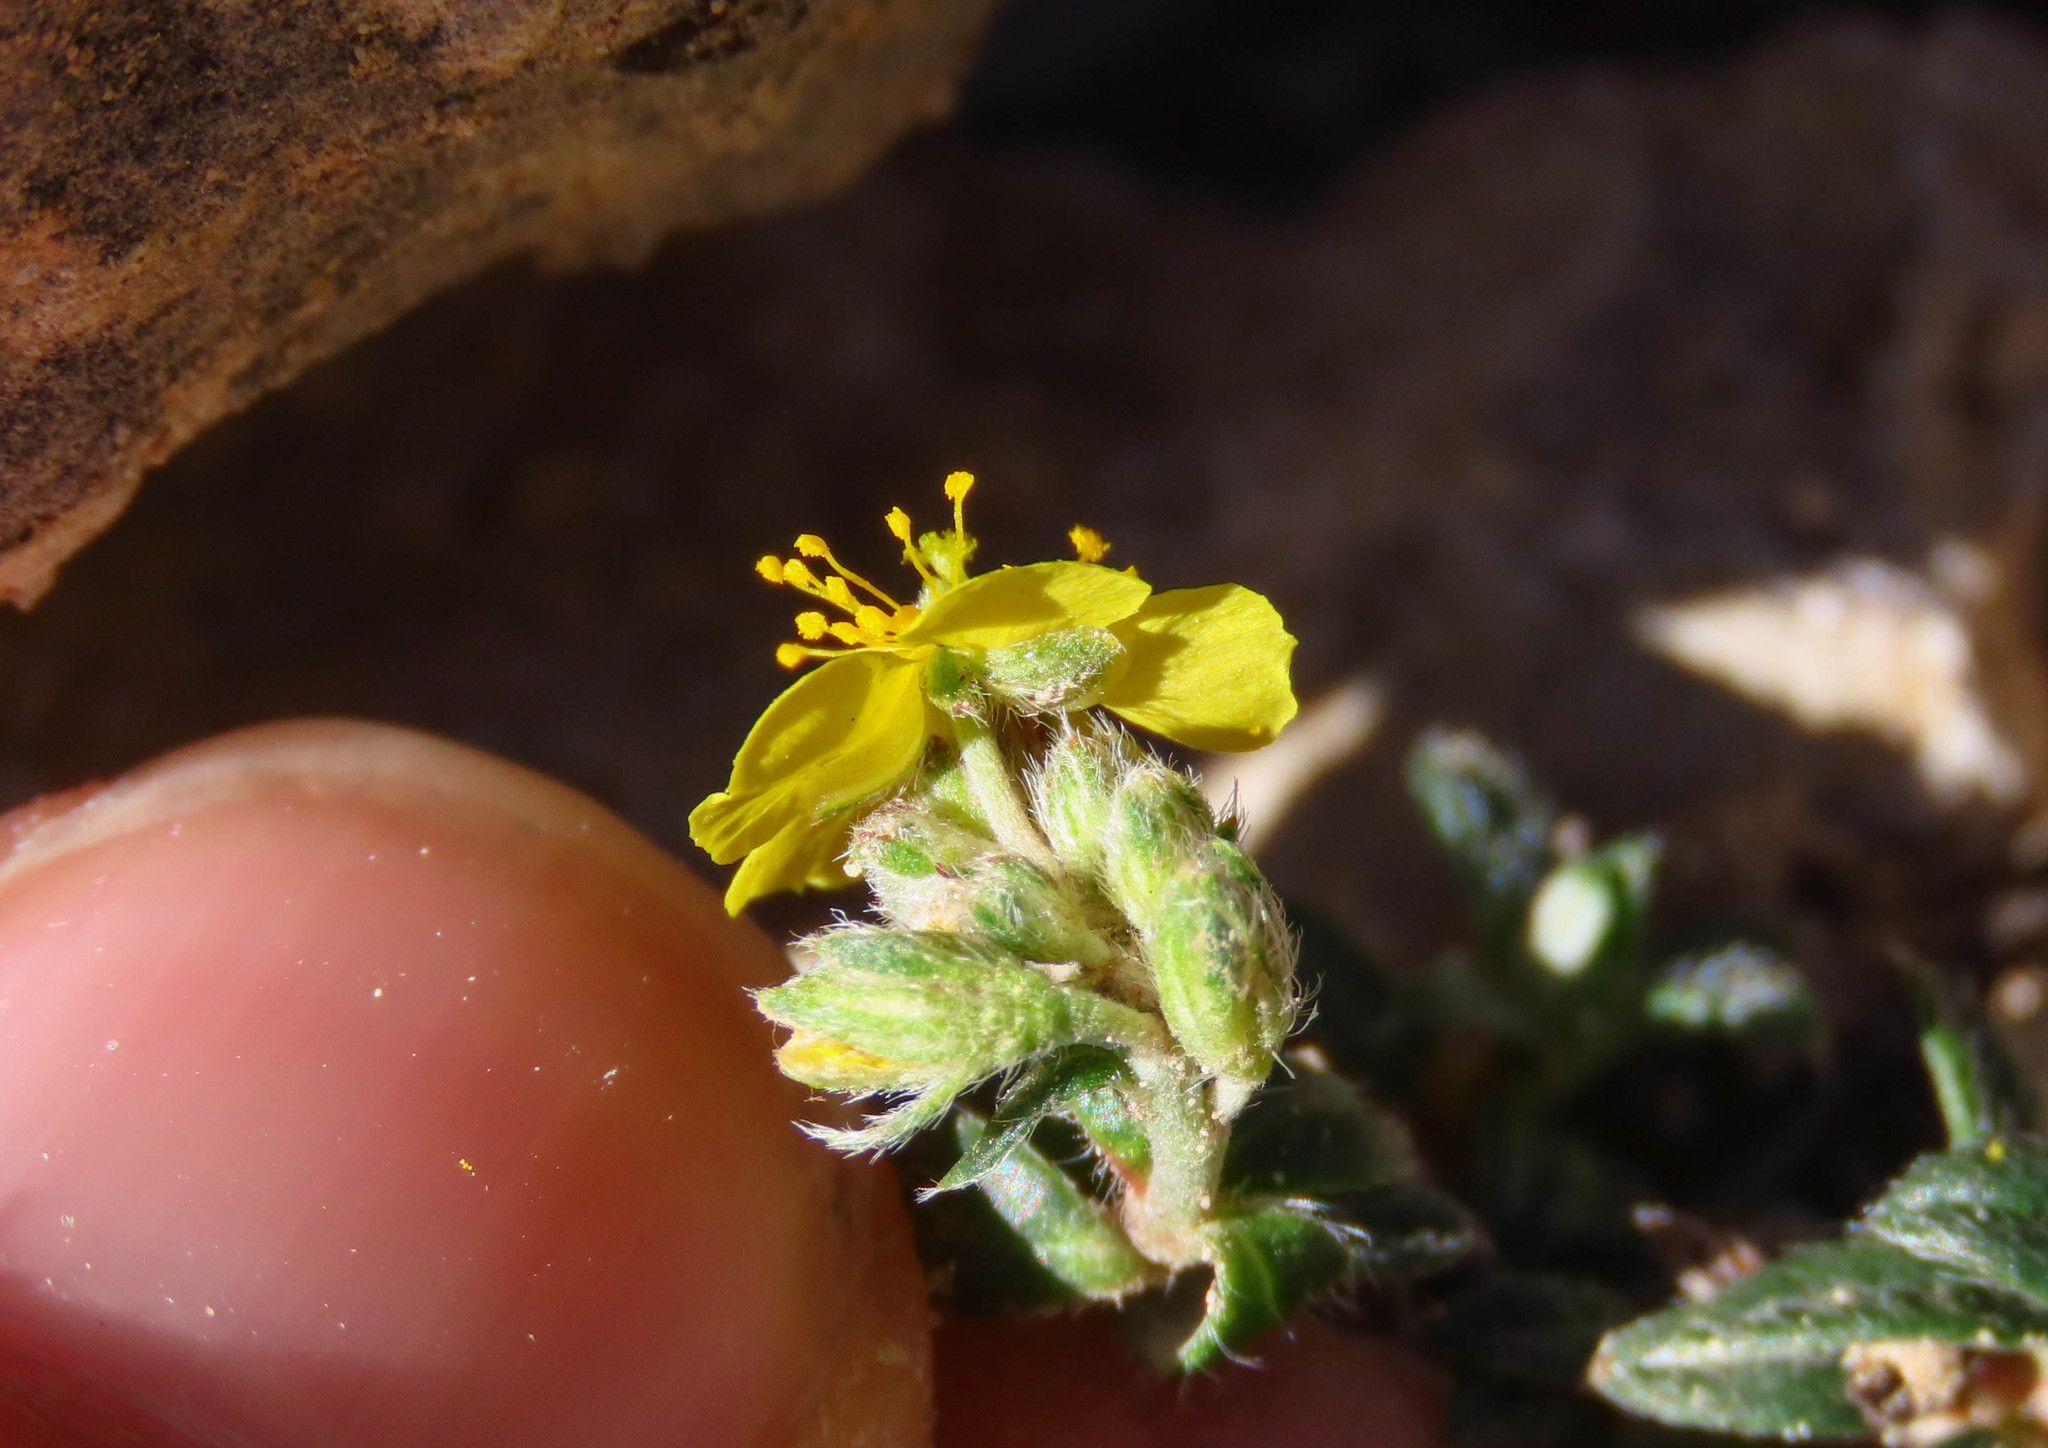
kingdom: Plantae
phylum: Tracheophyta
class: Magnoliopsida
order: Malvales
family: Cistaceae
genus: Helianthemum
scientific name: Helianthemum oelandicum
